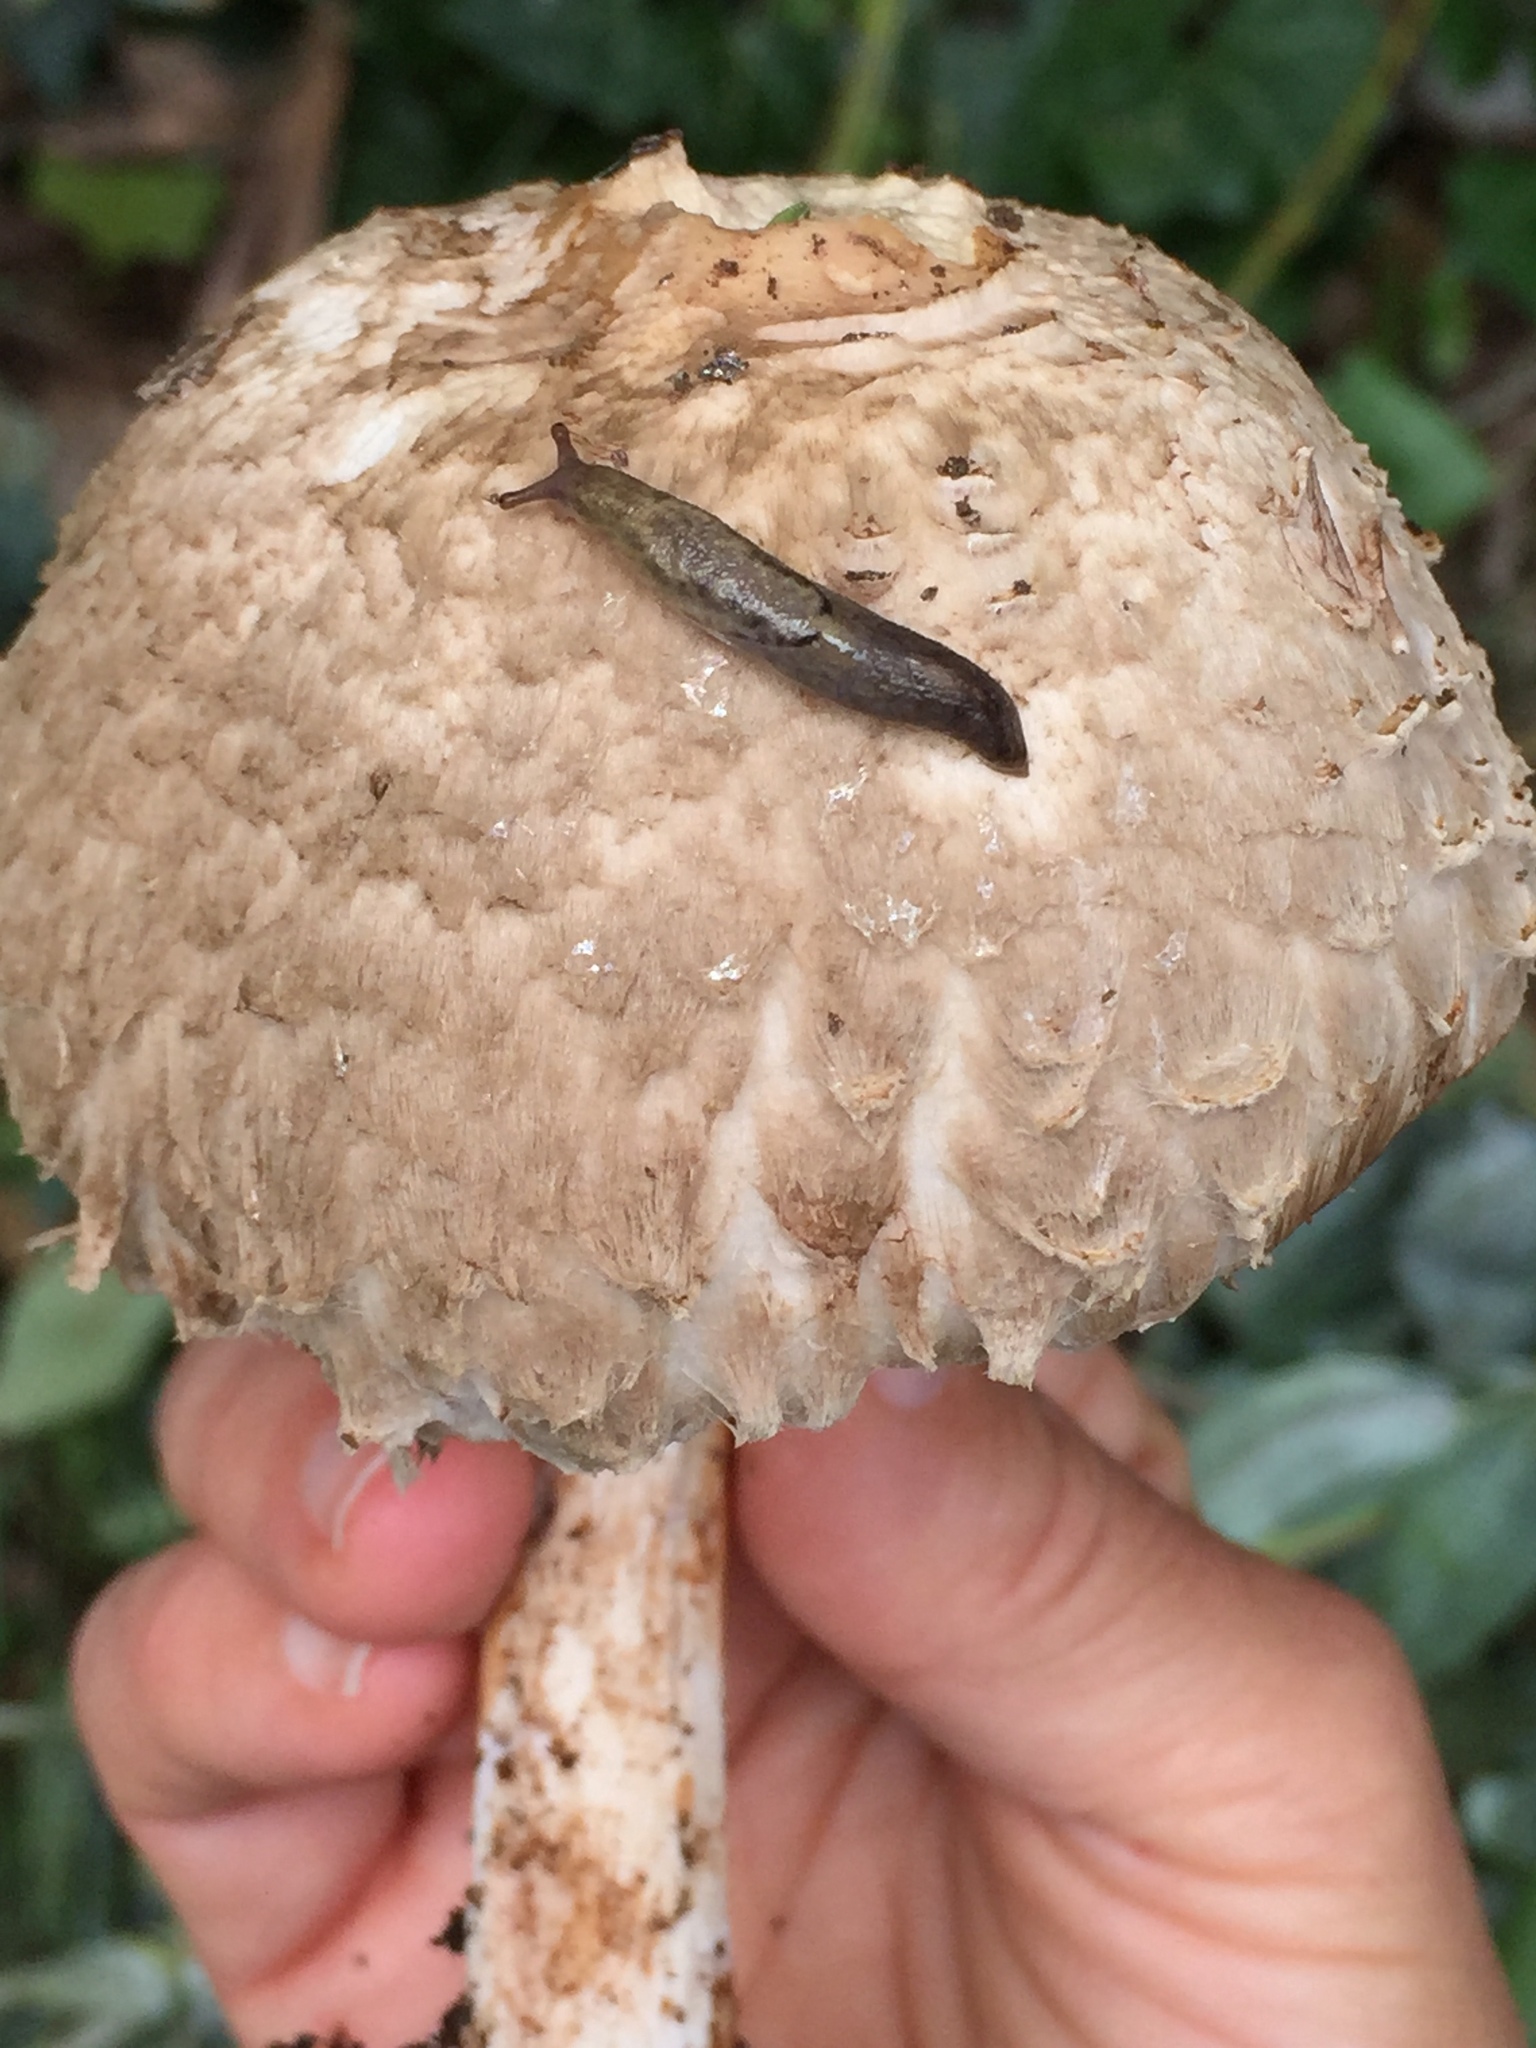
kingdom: Animalia
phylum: Mollusca
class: Gastropoda
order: Stylommatophora
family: Ariolimacidae
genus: Prophysaon
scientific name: Prophysaon andersonii
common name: Reticulate taildropper
